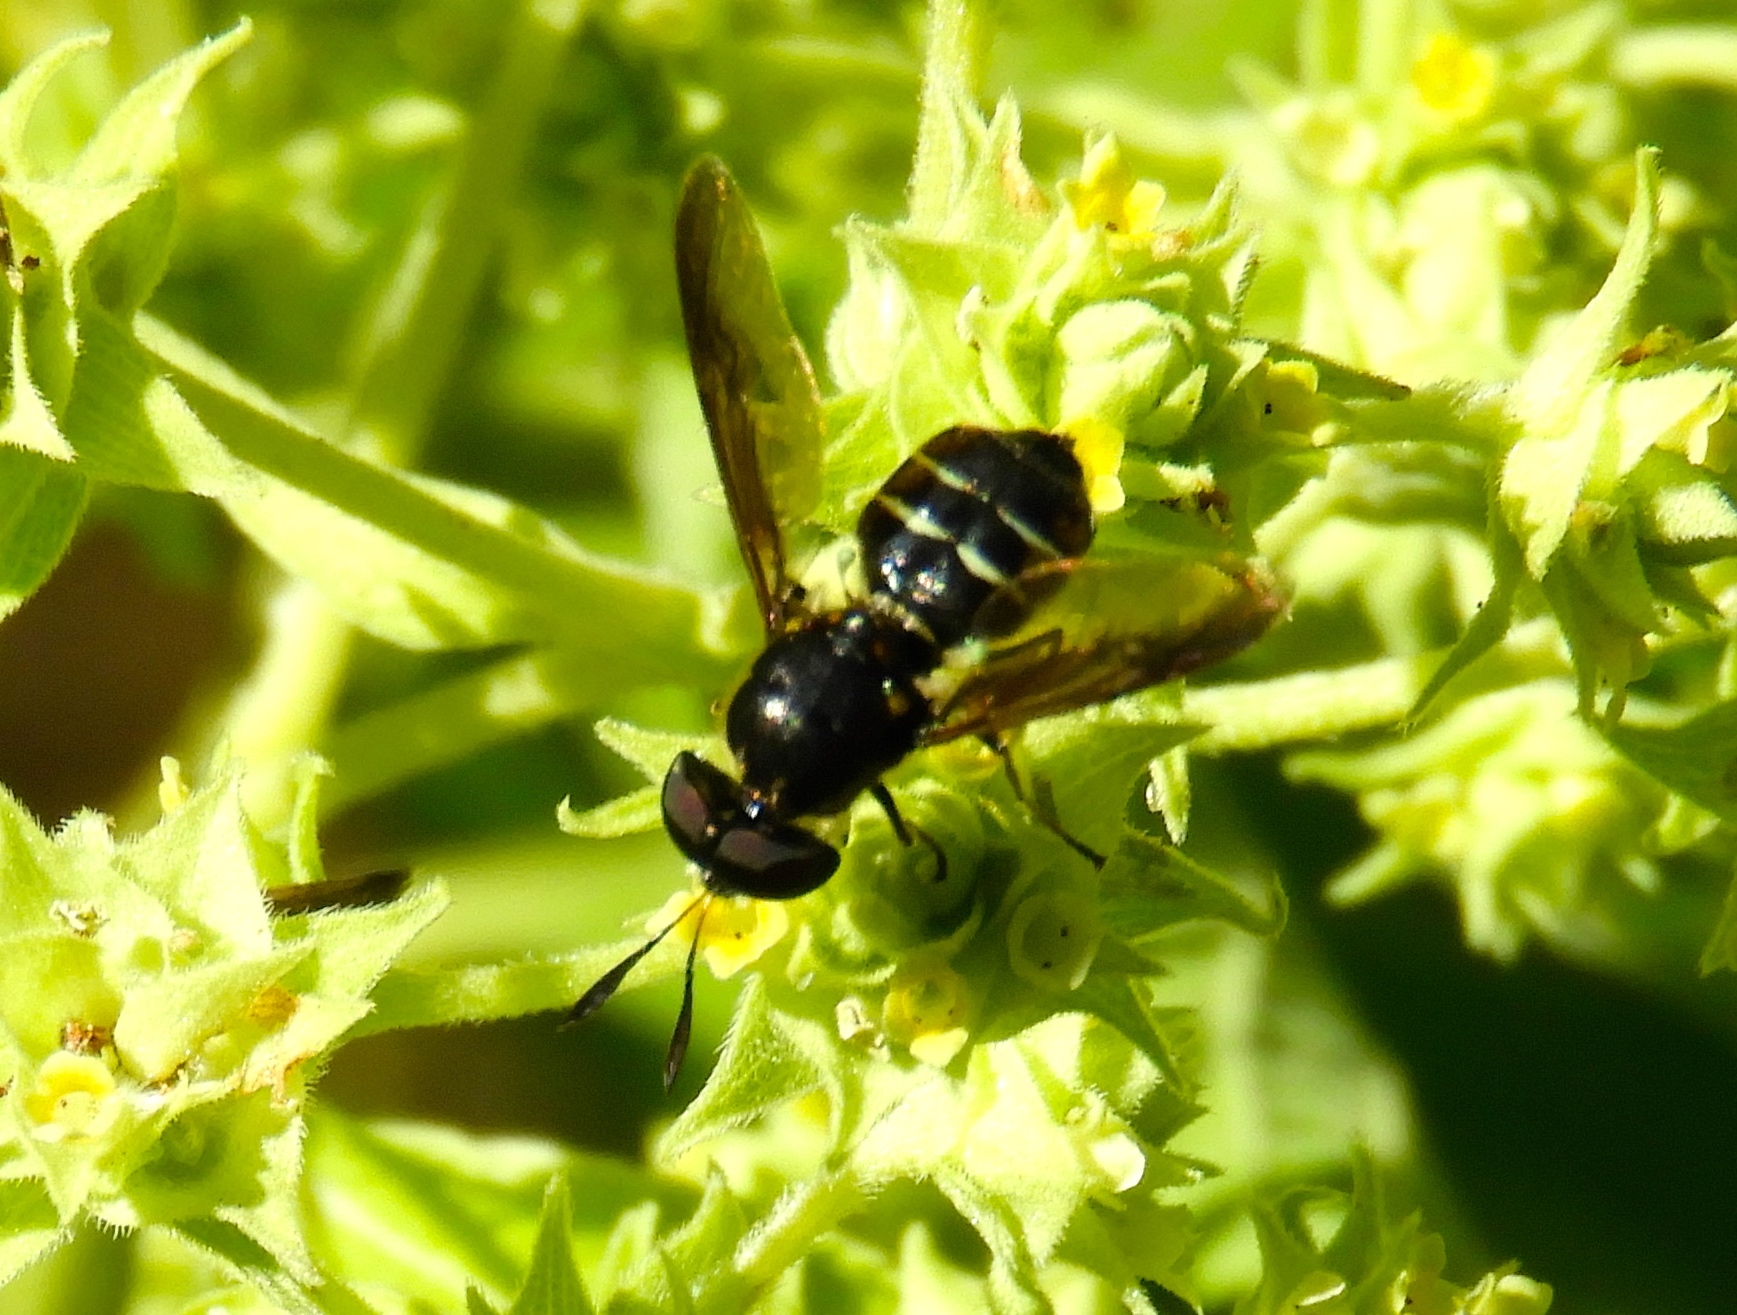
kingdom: Animalia
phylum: Arthropoda
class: Insecta
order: Diptera
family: Stratiomyidae
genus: Hoplitimyia
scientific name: Hoplitimyia
